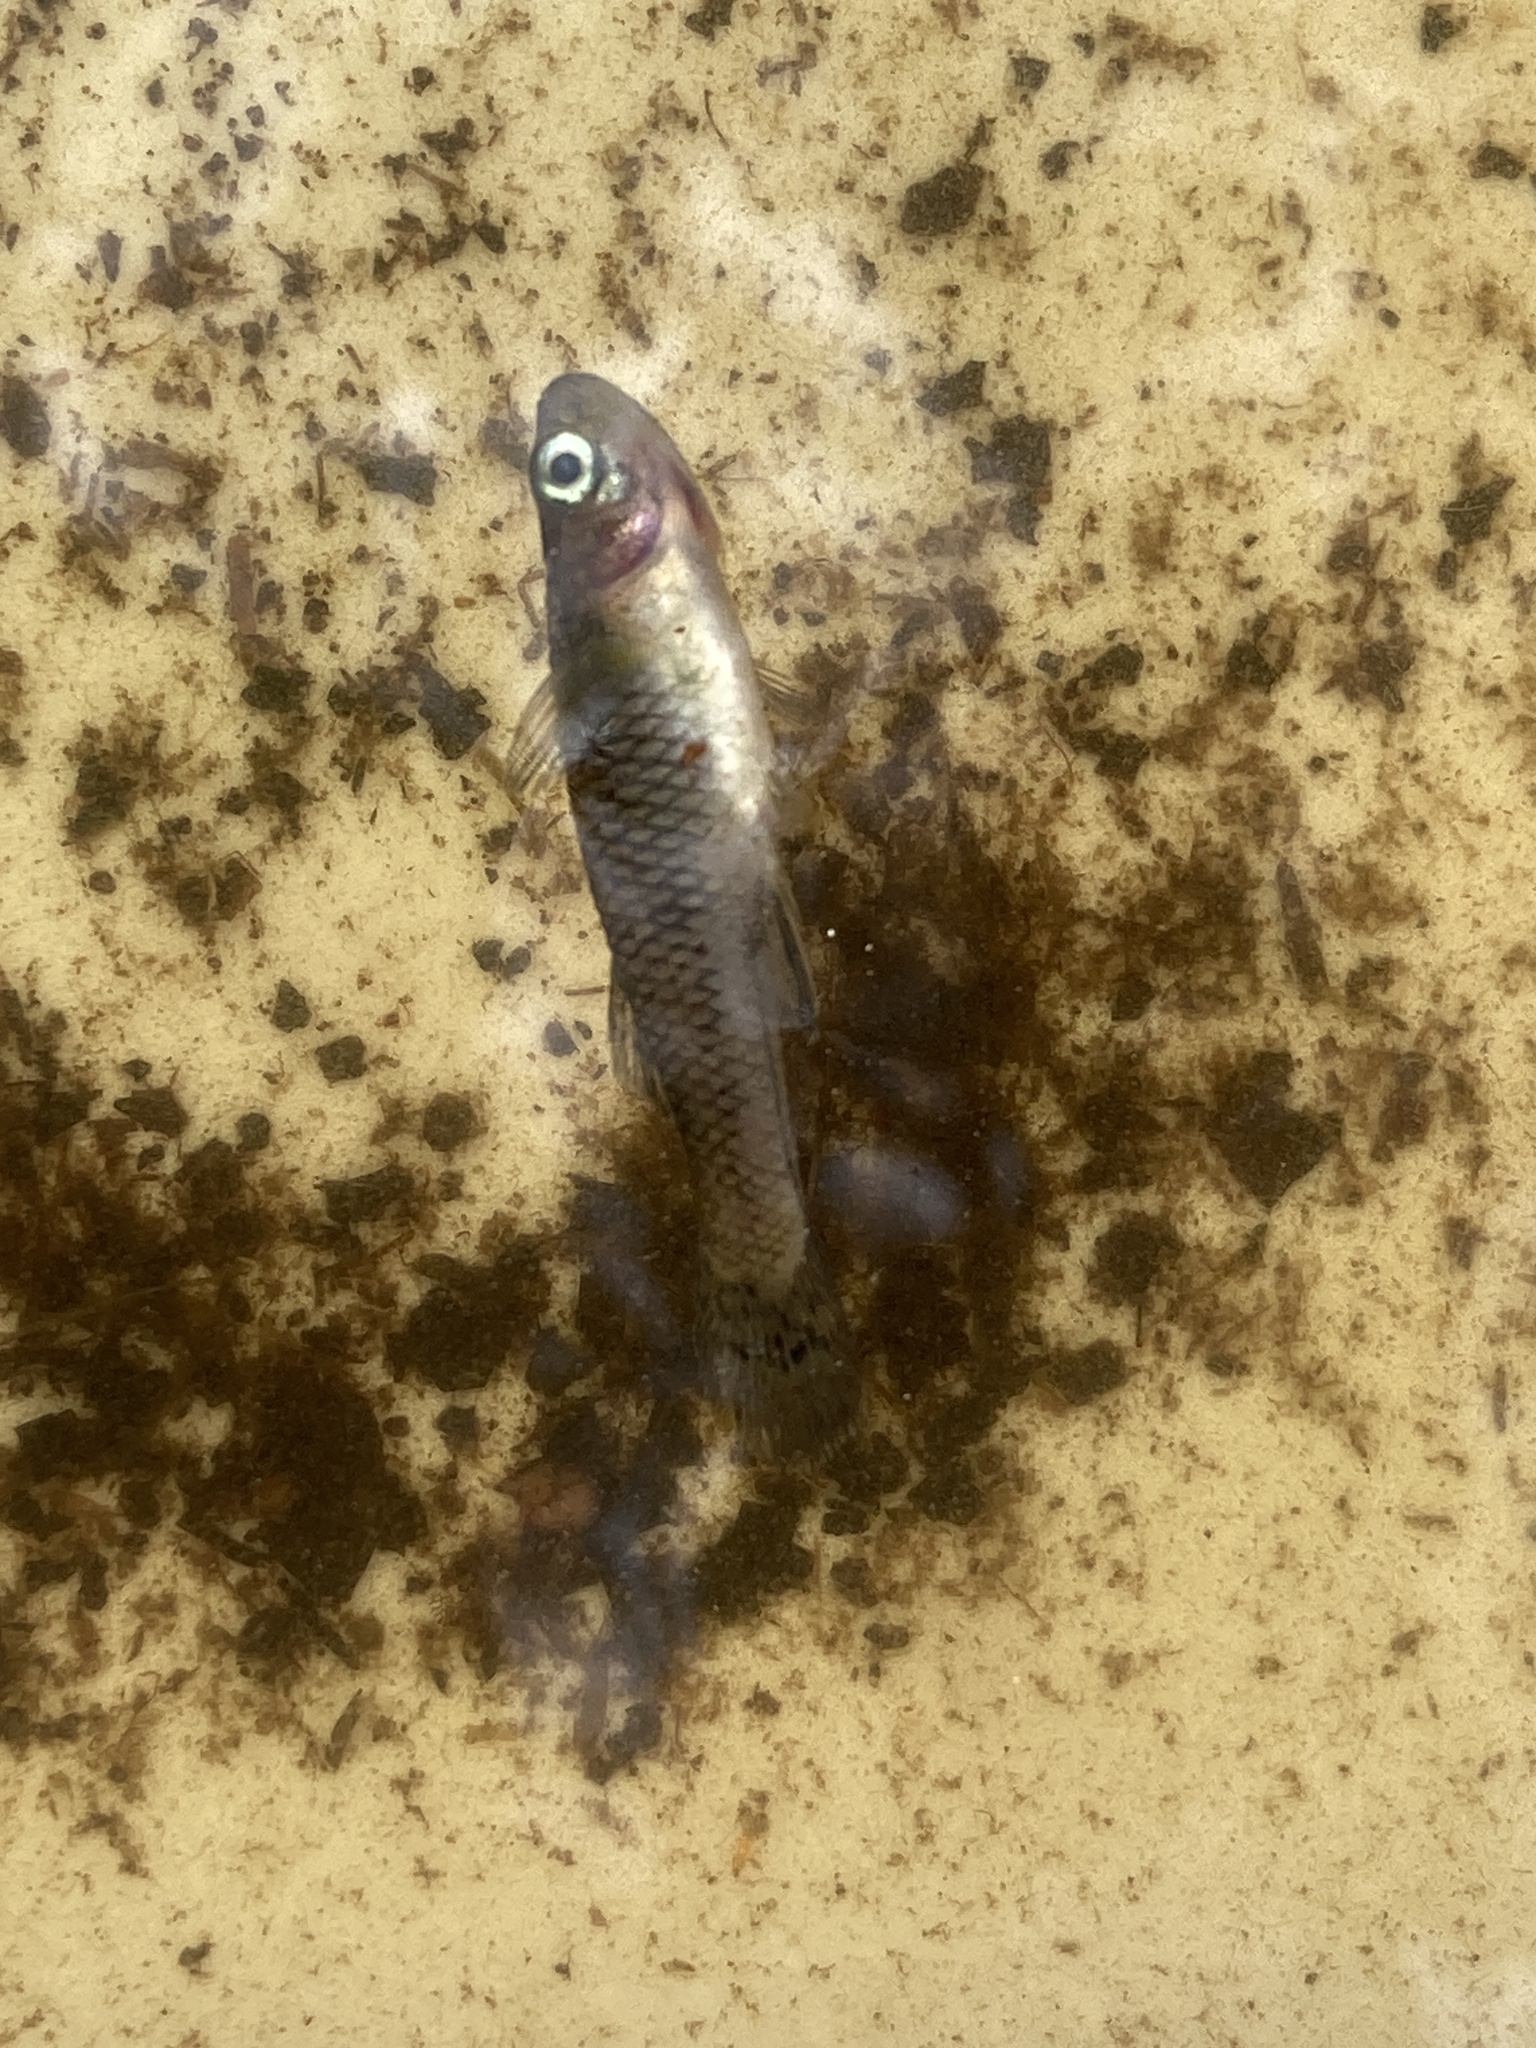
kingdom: Animalia
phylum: Chordata
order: Cyprinodontiformes
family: Poeciliidae
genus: Gambusia
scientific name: Gambusia holbrooki
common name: Eastern mosquitofish
